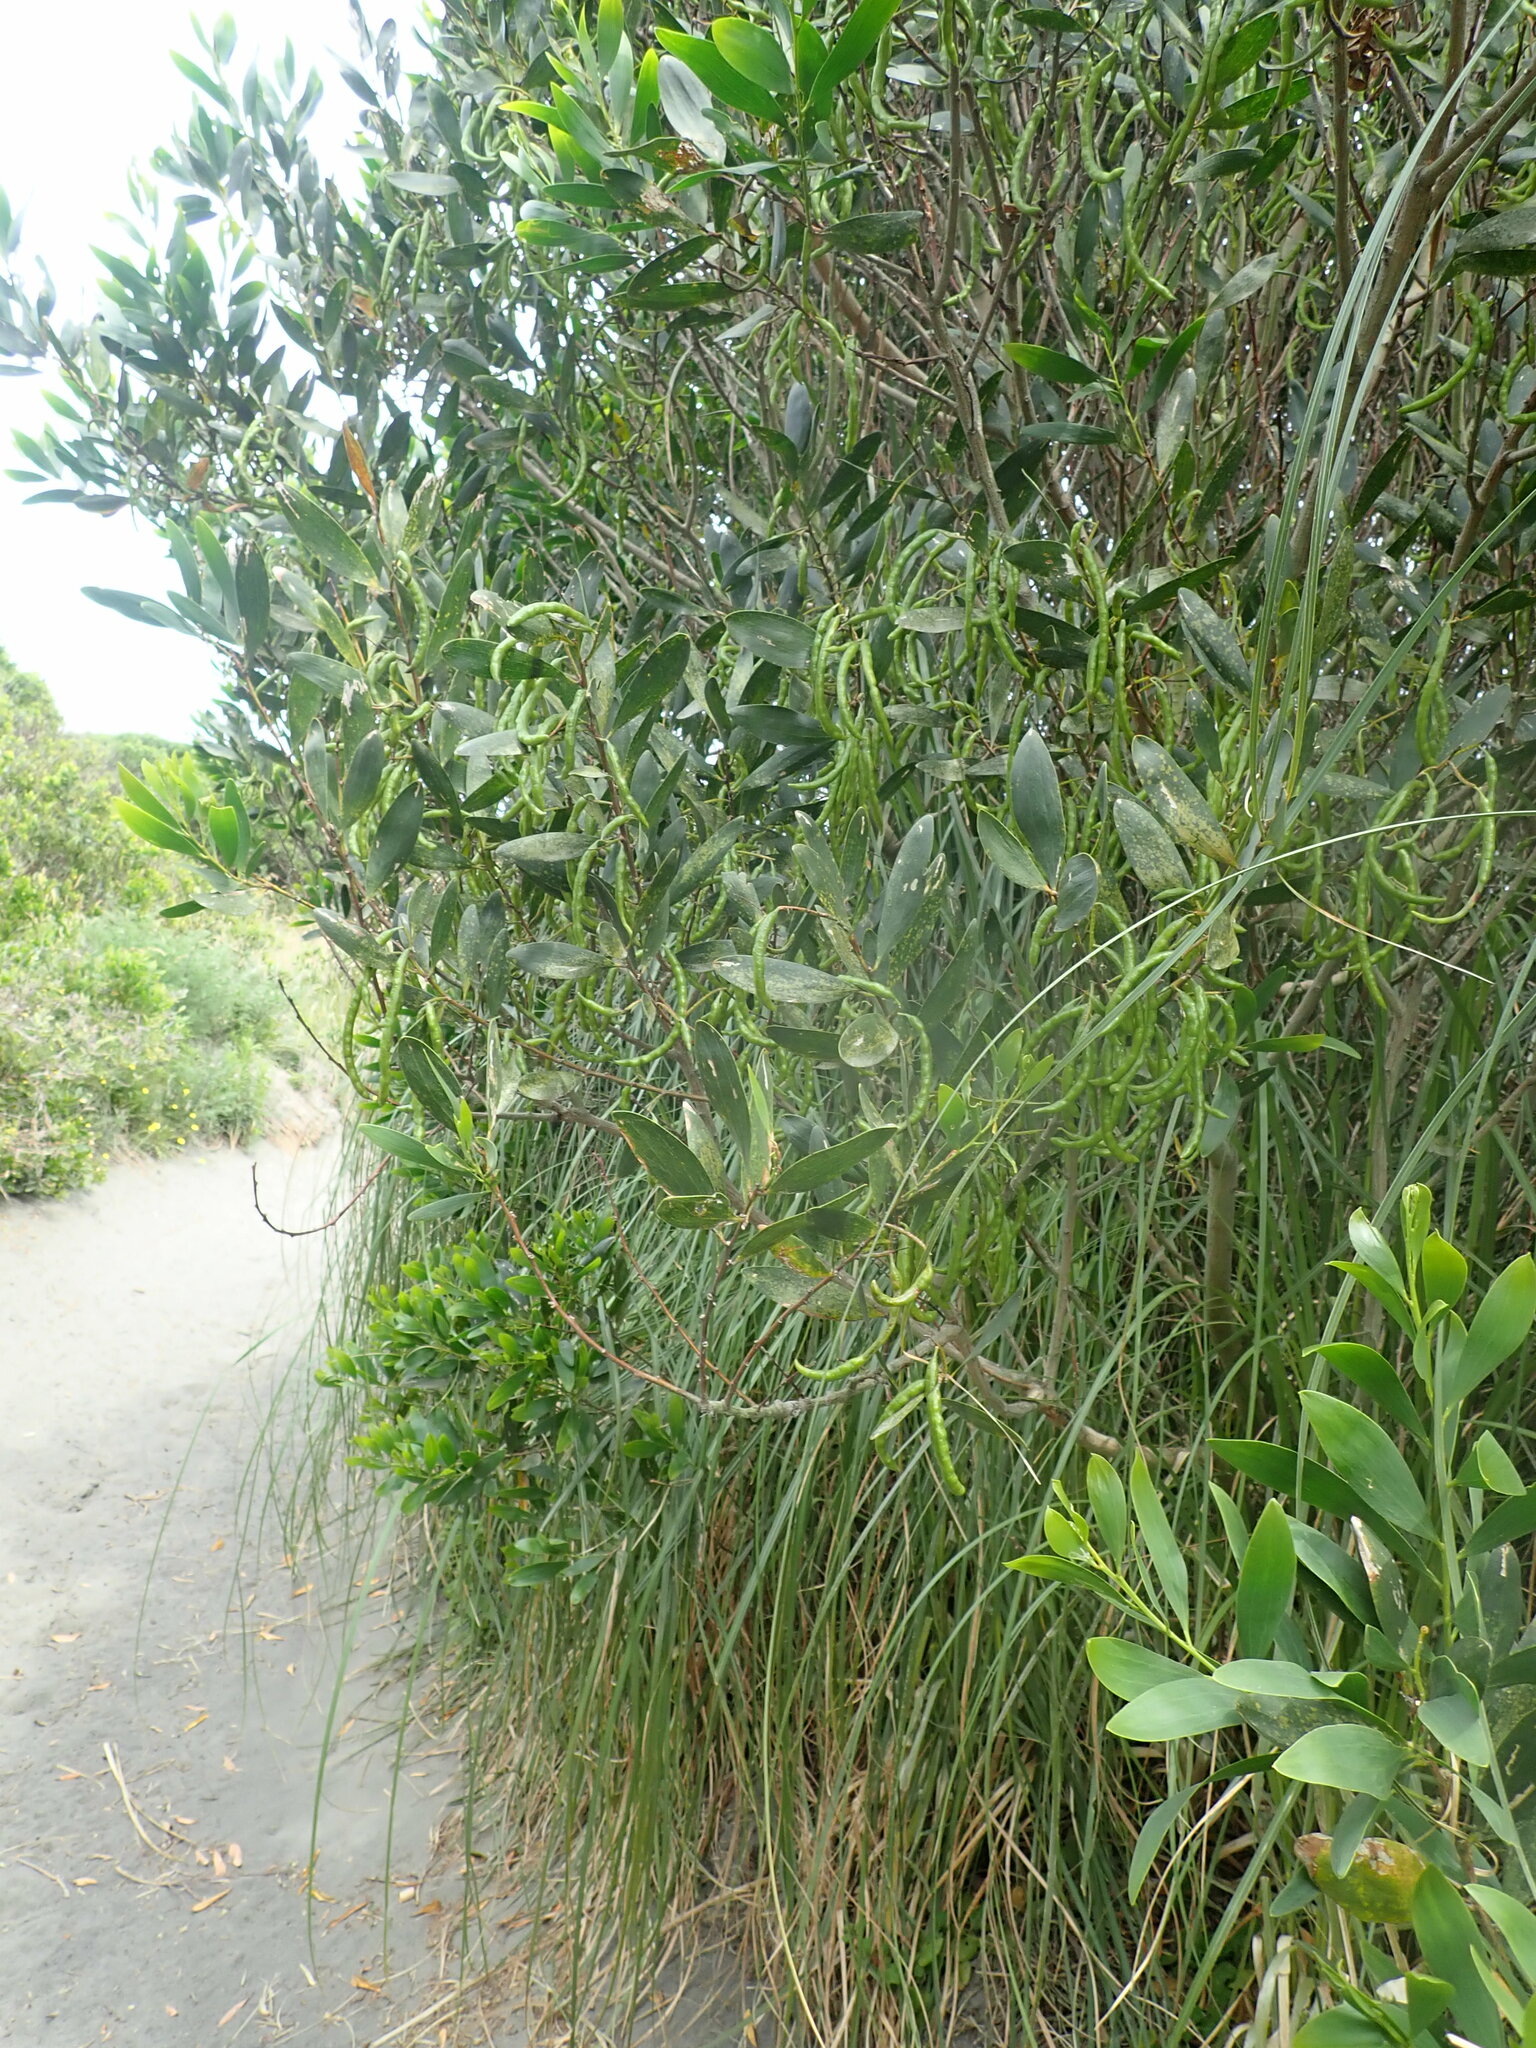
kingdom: Plantae
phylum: Tracheophyta
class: Magnoliopsida
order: Fabales
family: Fabaceae
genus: Acacia
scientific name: Acacia longifolia
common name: Sydney golden wattle
